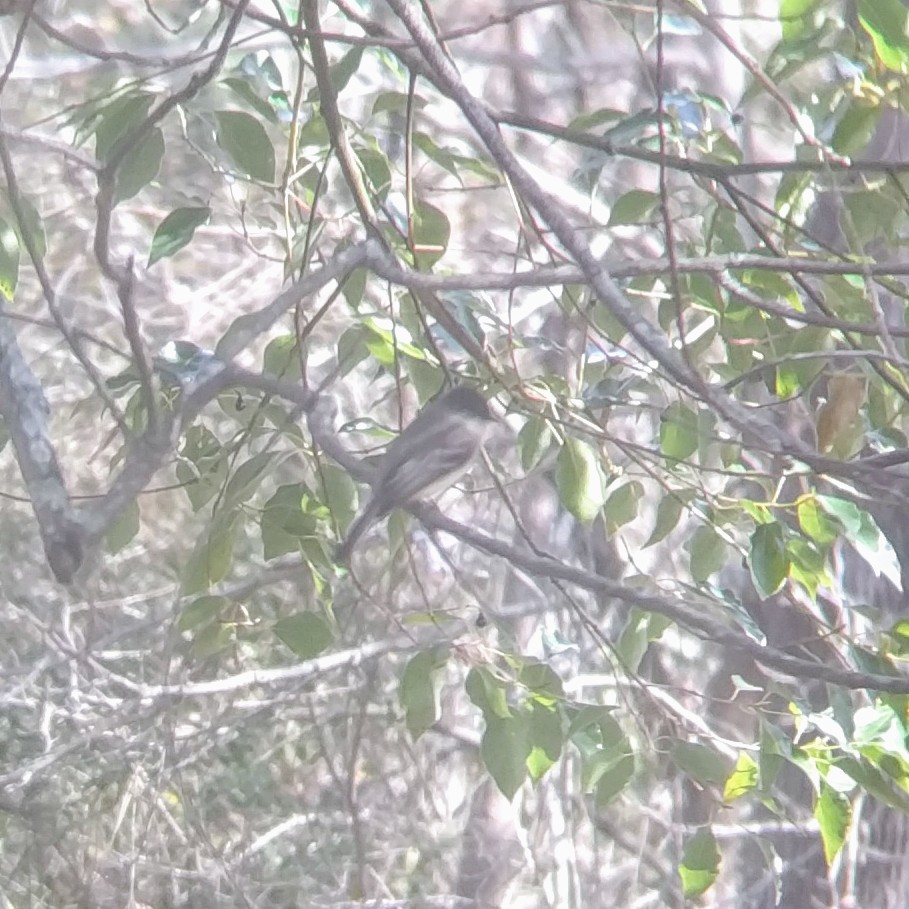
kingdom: Animalia
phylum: Chordata
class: Aves
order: Passeriformes
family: Tyrannidae
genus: Sayornis
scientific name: Sayornis phoebe
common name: Eastern phoebe
